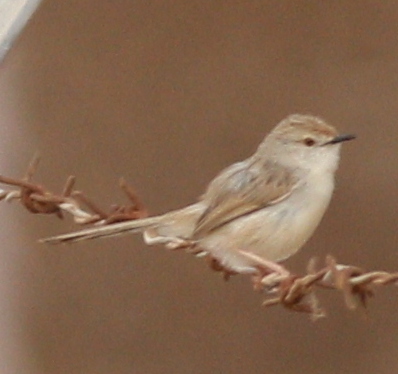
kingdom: Animalia
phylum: Chordata
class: Aves
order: Passeriformes
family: Cisticolidae
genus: Prinia
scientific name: Prinia gracilis
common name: Graceful prinia
